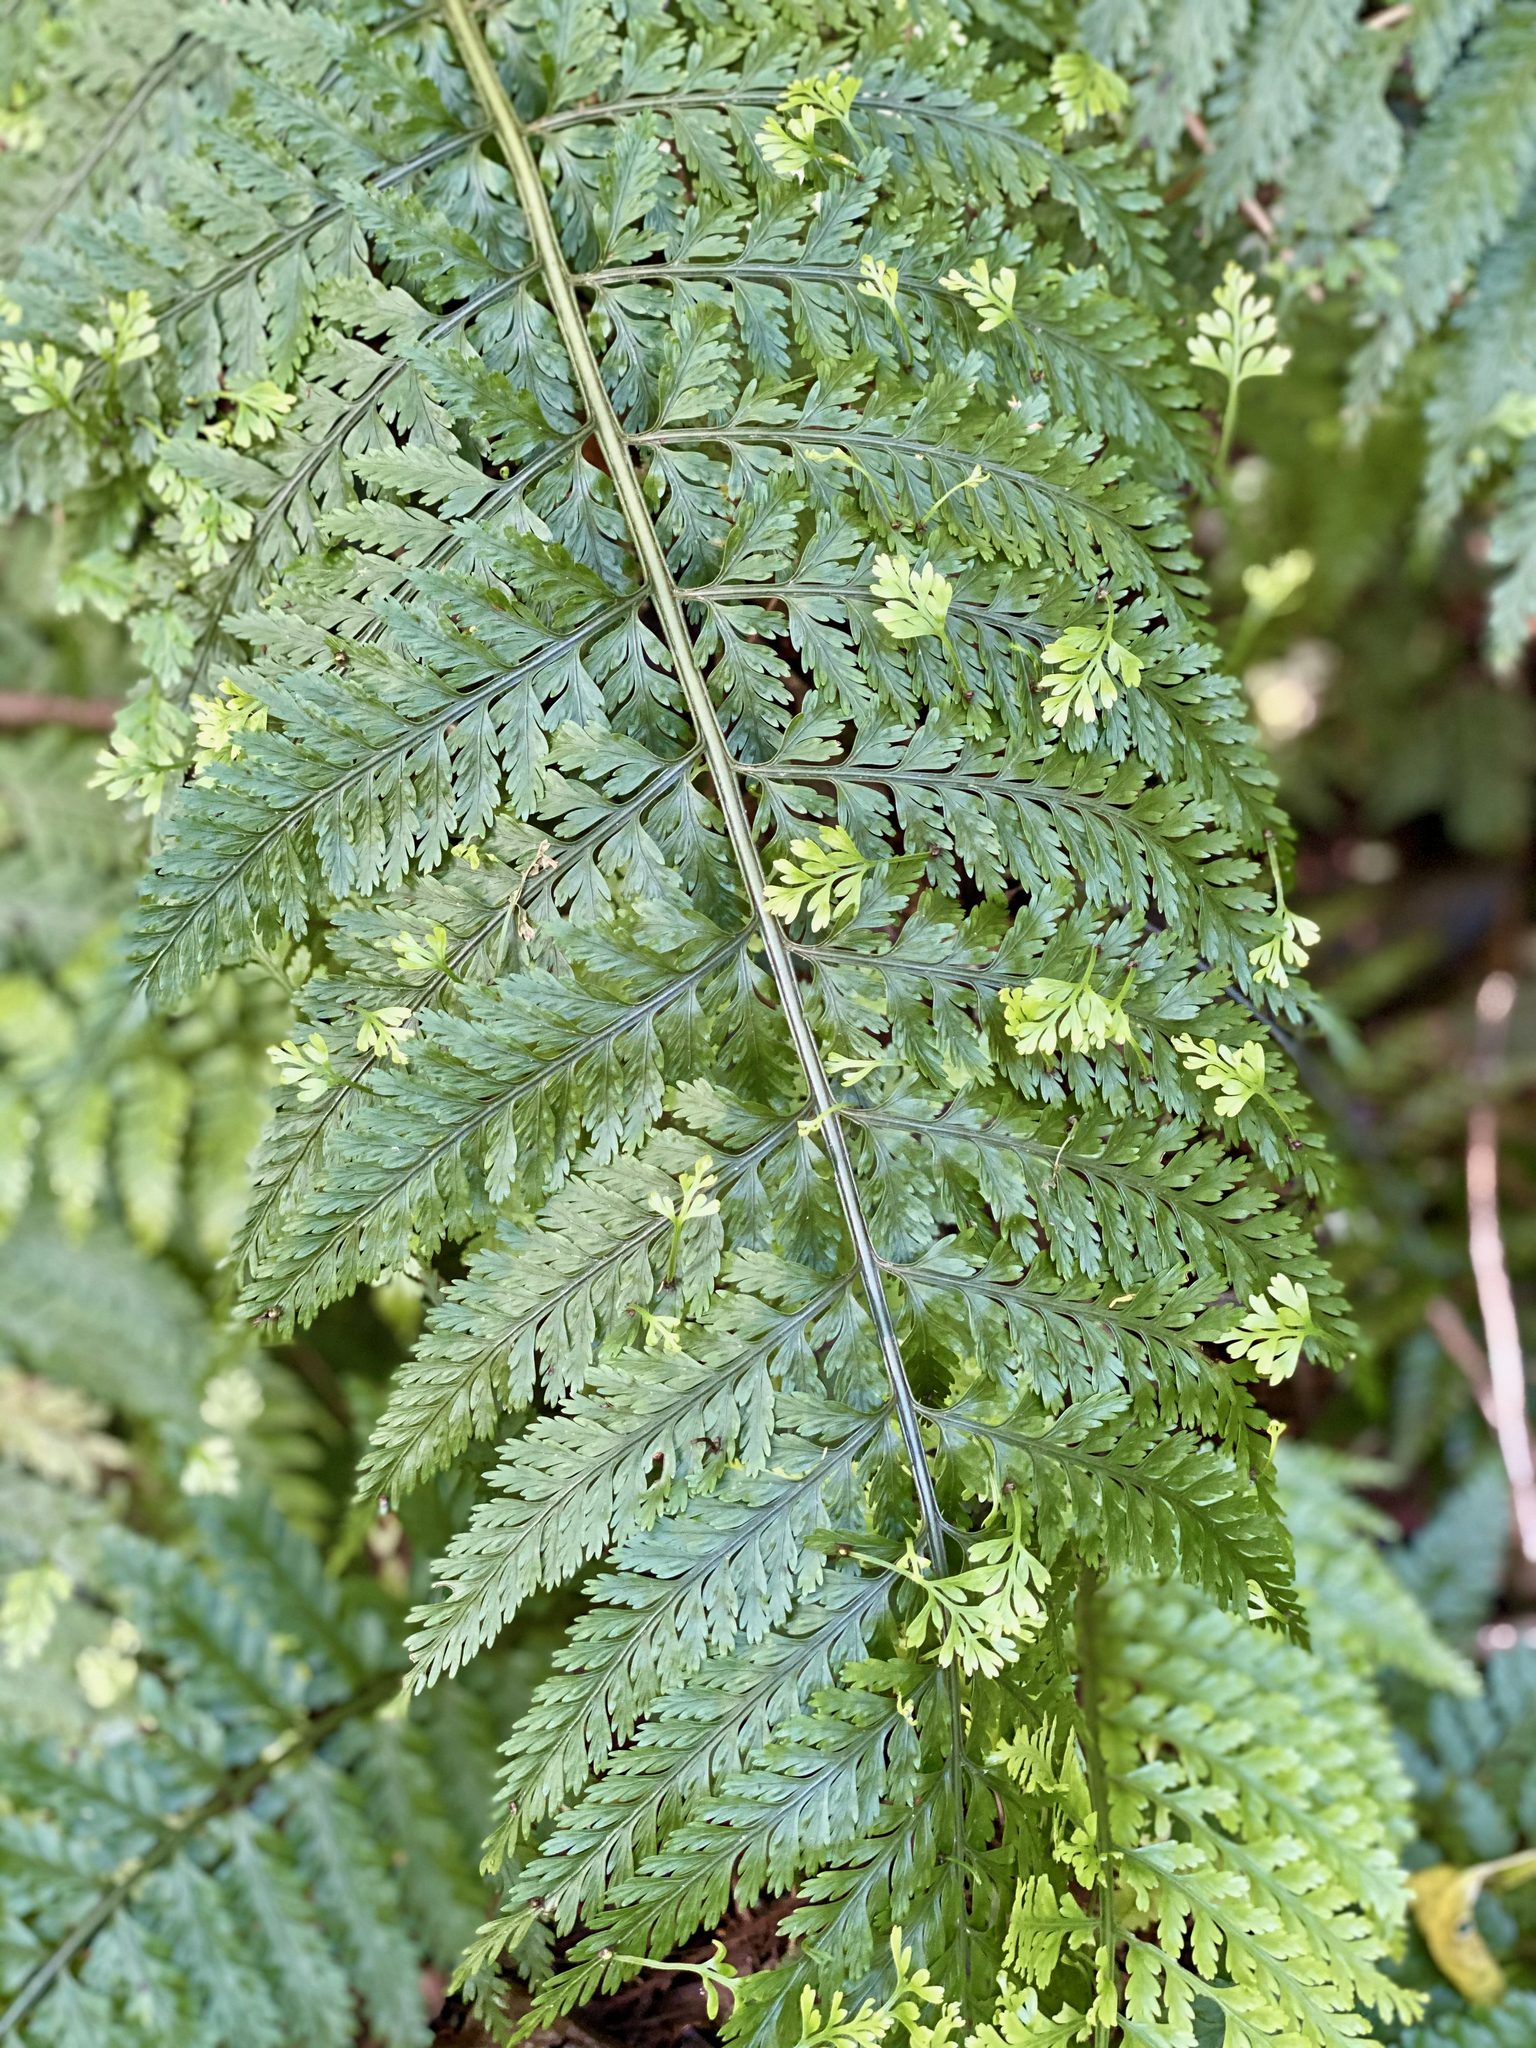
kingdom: Plantae
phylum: Tracheophyta
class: Polypodiopsida
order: Polypodiales
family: Aspleniaceae
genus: Asplenium
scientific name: Asplenium bulbiferum
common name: Mother fern
